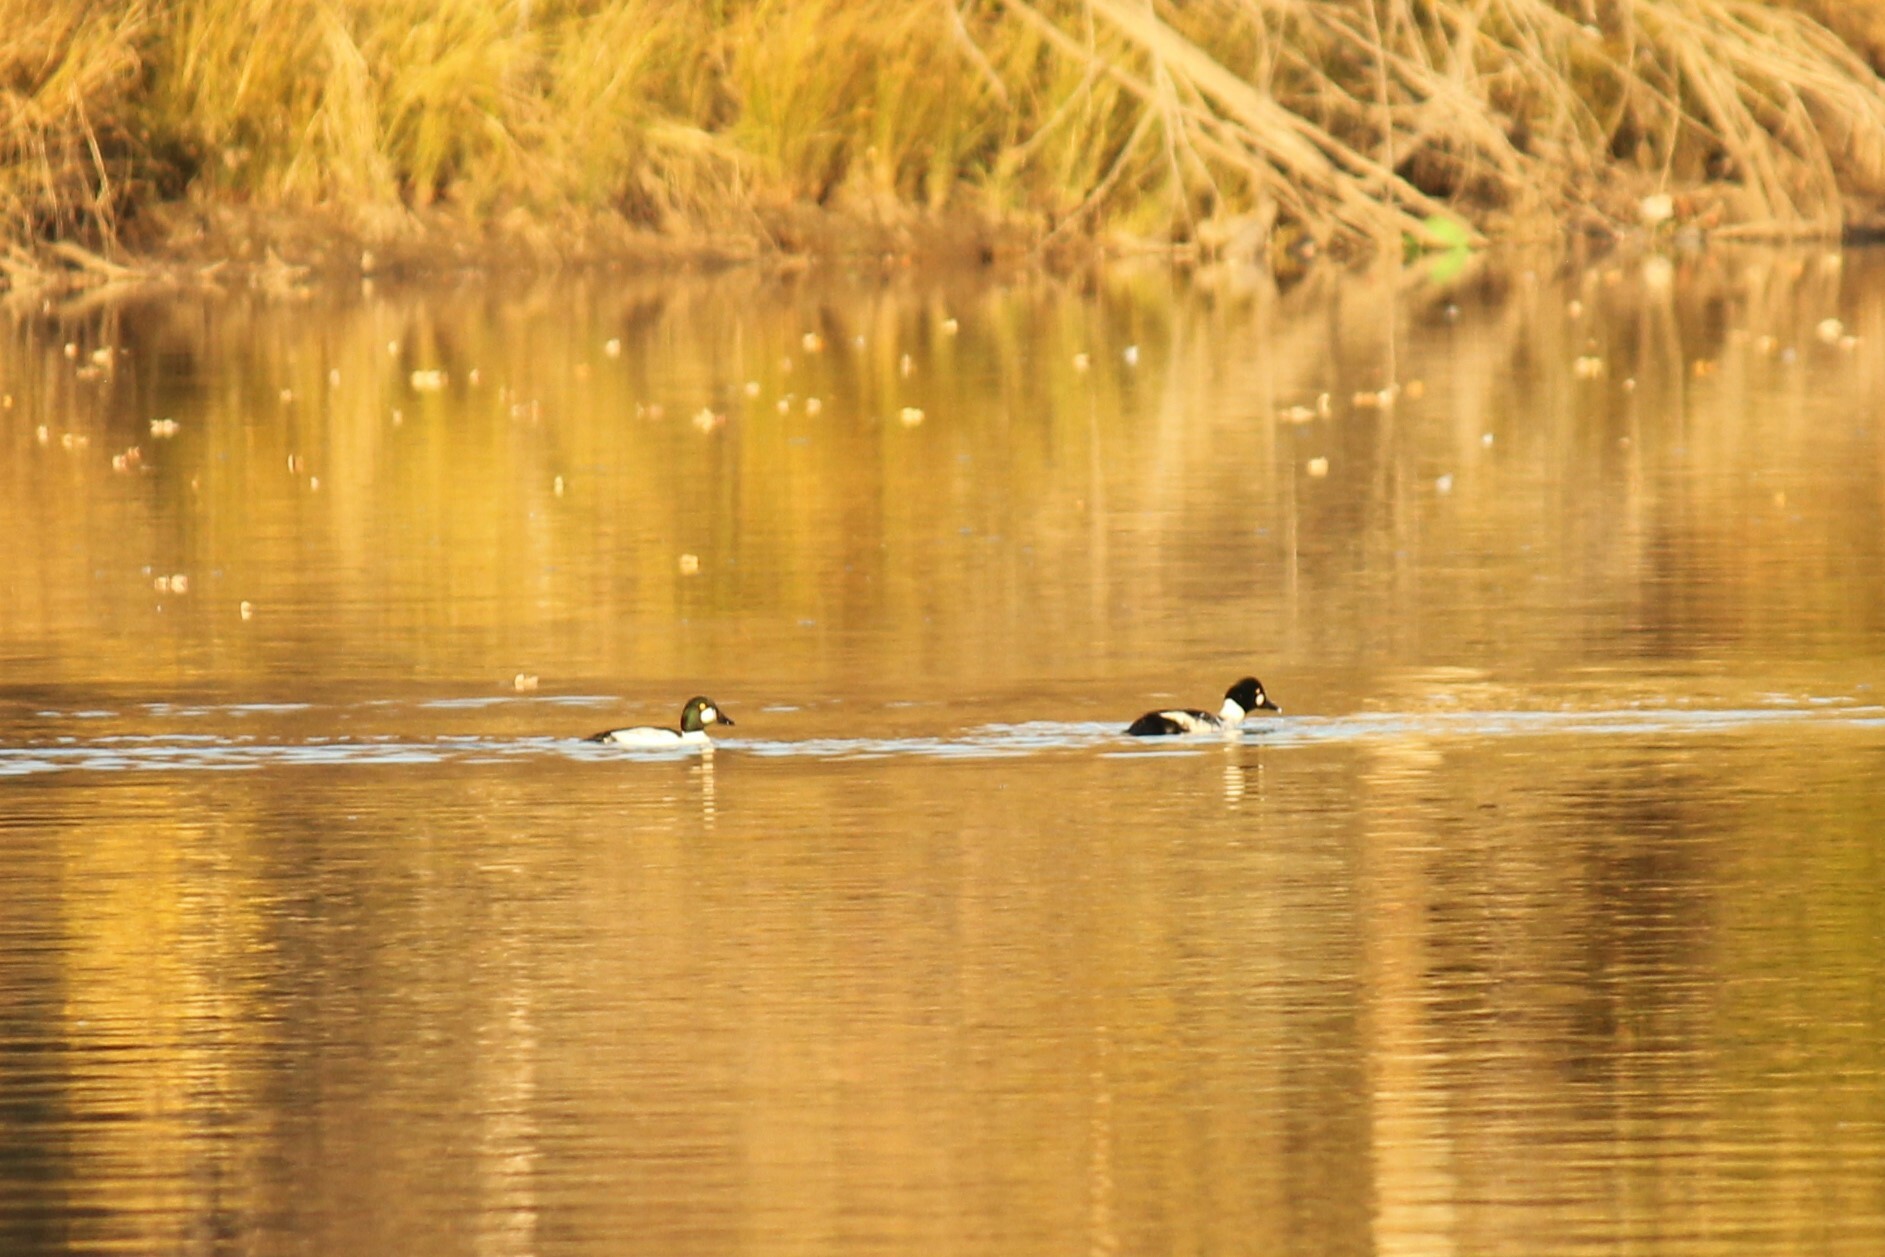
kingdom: Animalia
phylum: Chordata
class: Aves
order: Anseriformes
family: Anatidae
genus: Bucephala
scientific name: Bucephala clangula
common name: Common goldeneye
